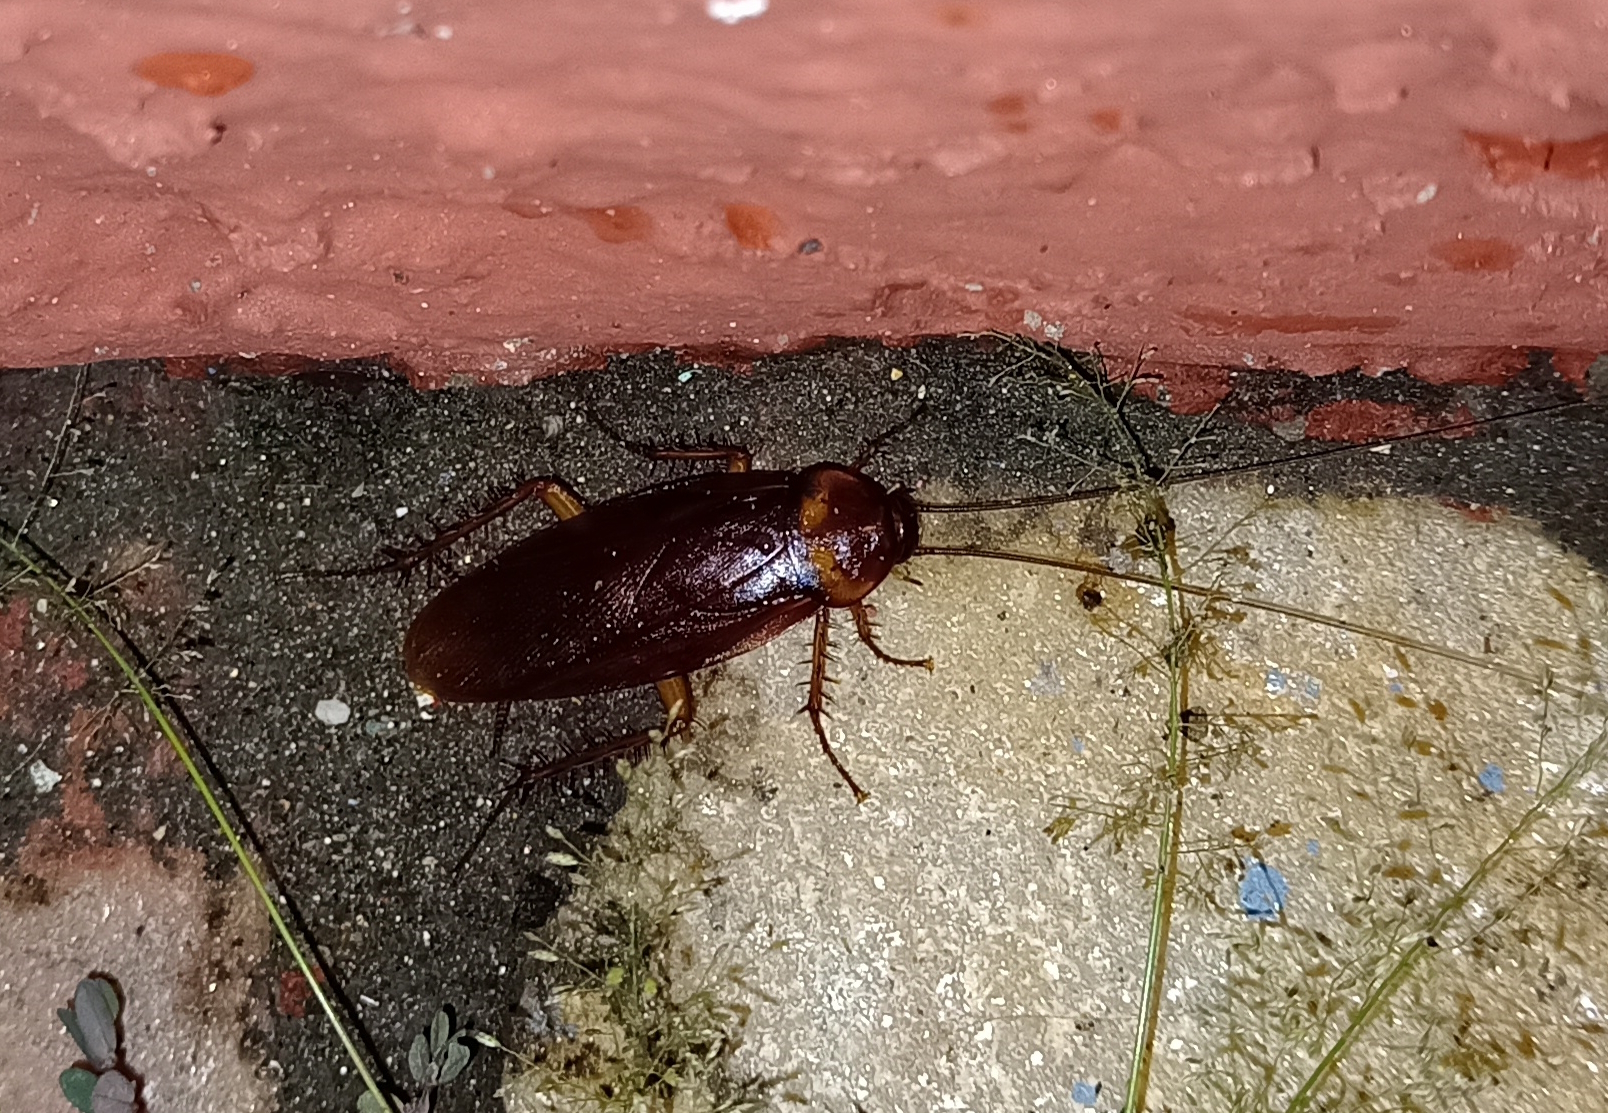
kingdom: Animalia
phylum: Arthropoda
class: Insecta
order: Blattodea
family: Blattidae
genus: Periplaneta
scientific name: Periplaneta americana
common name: American cockroach
